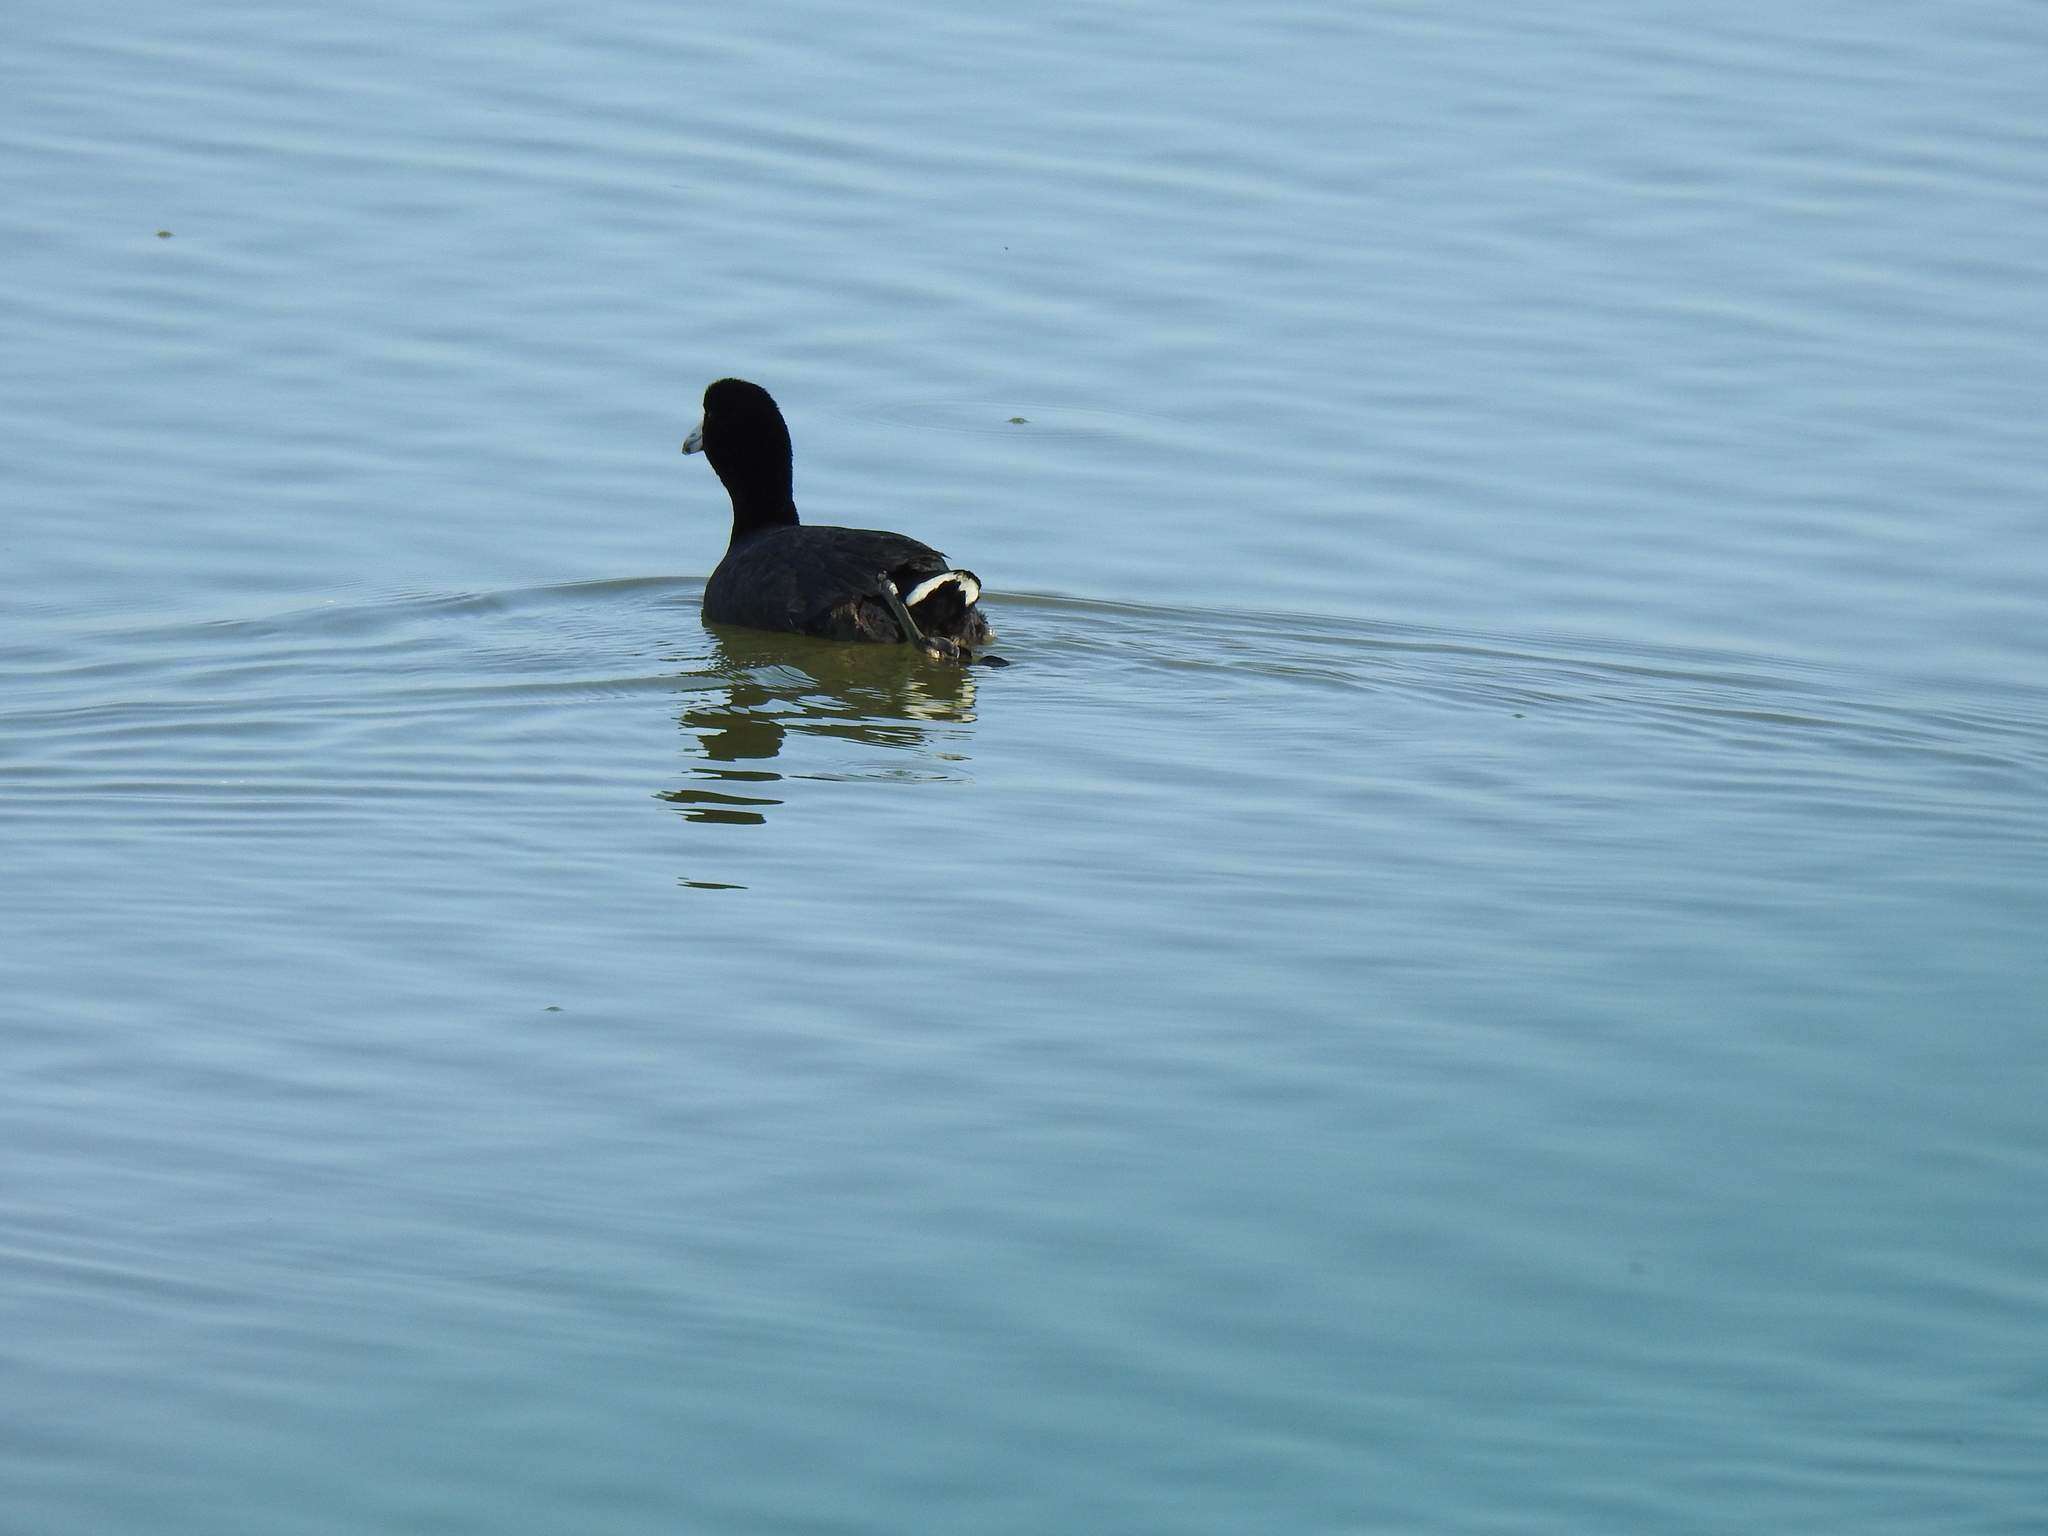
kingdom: Animalia
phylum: Chordata
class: Aves
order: Gruiformes
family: Rallidae
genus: Fulica
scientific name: Fulica americana
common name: American coot
